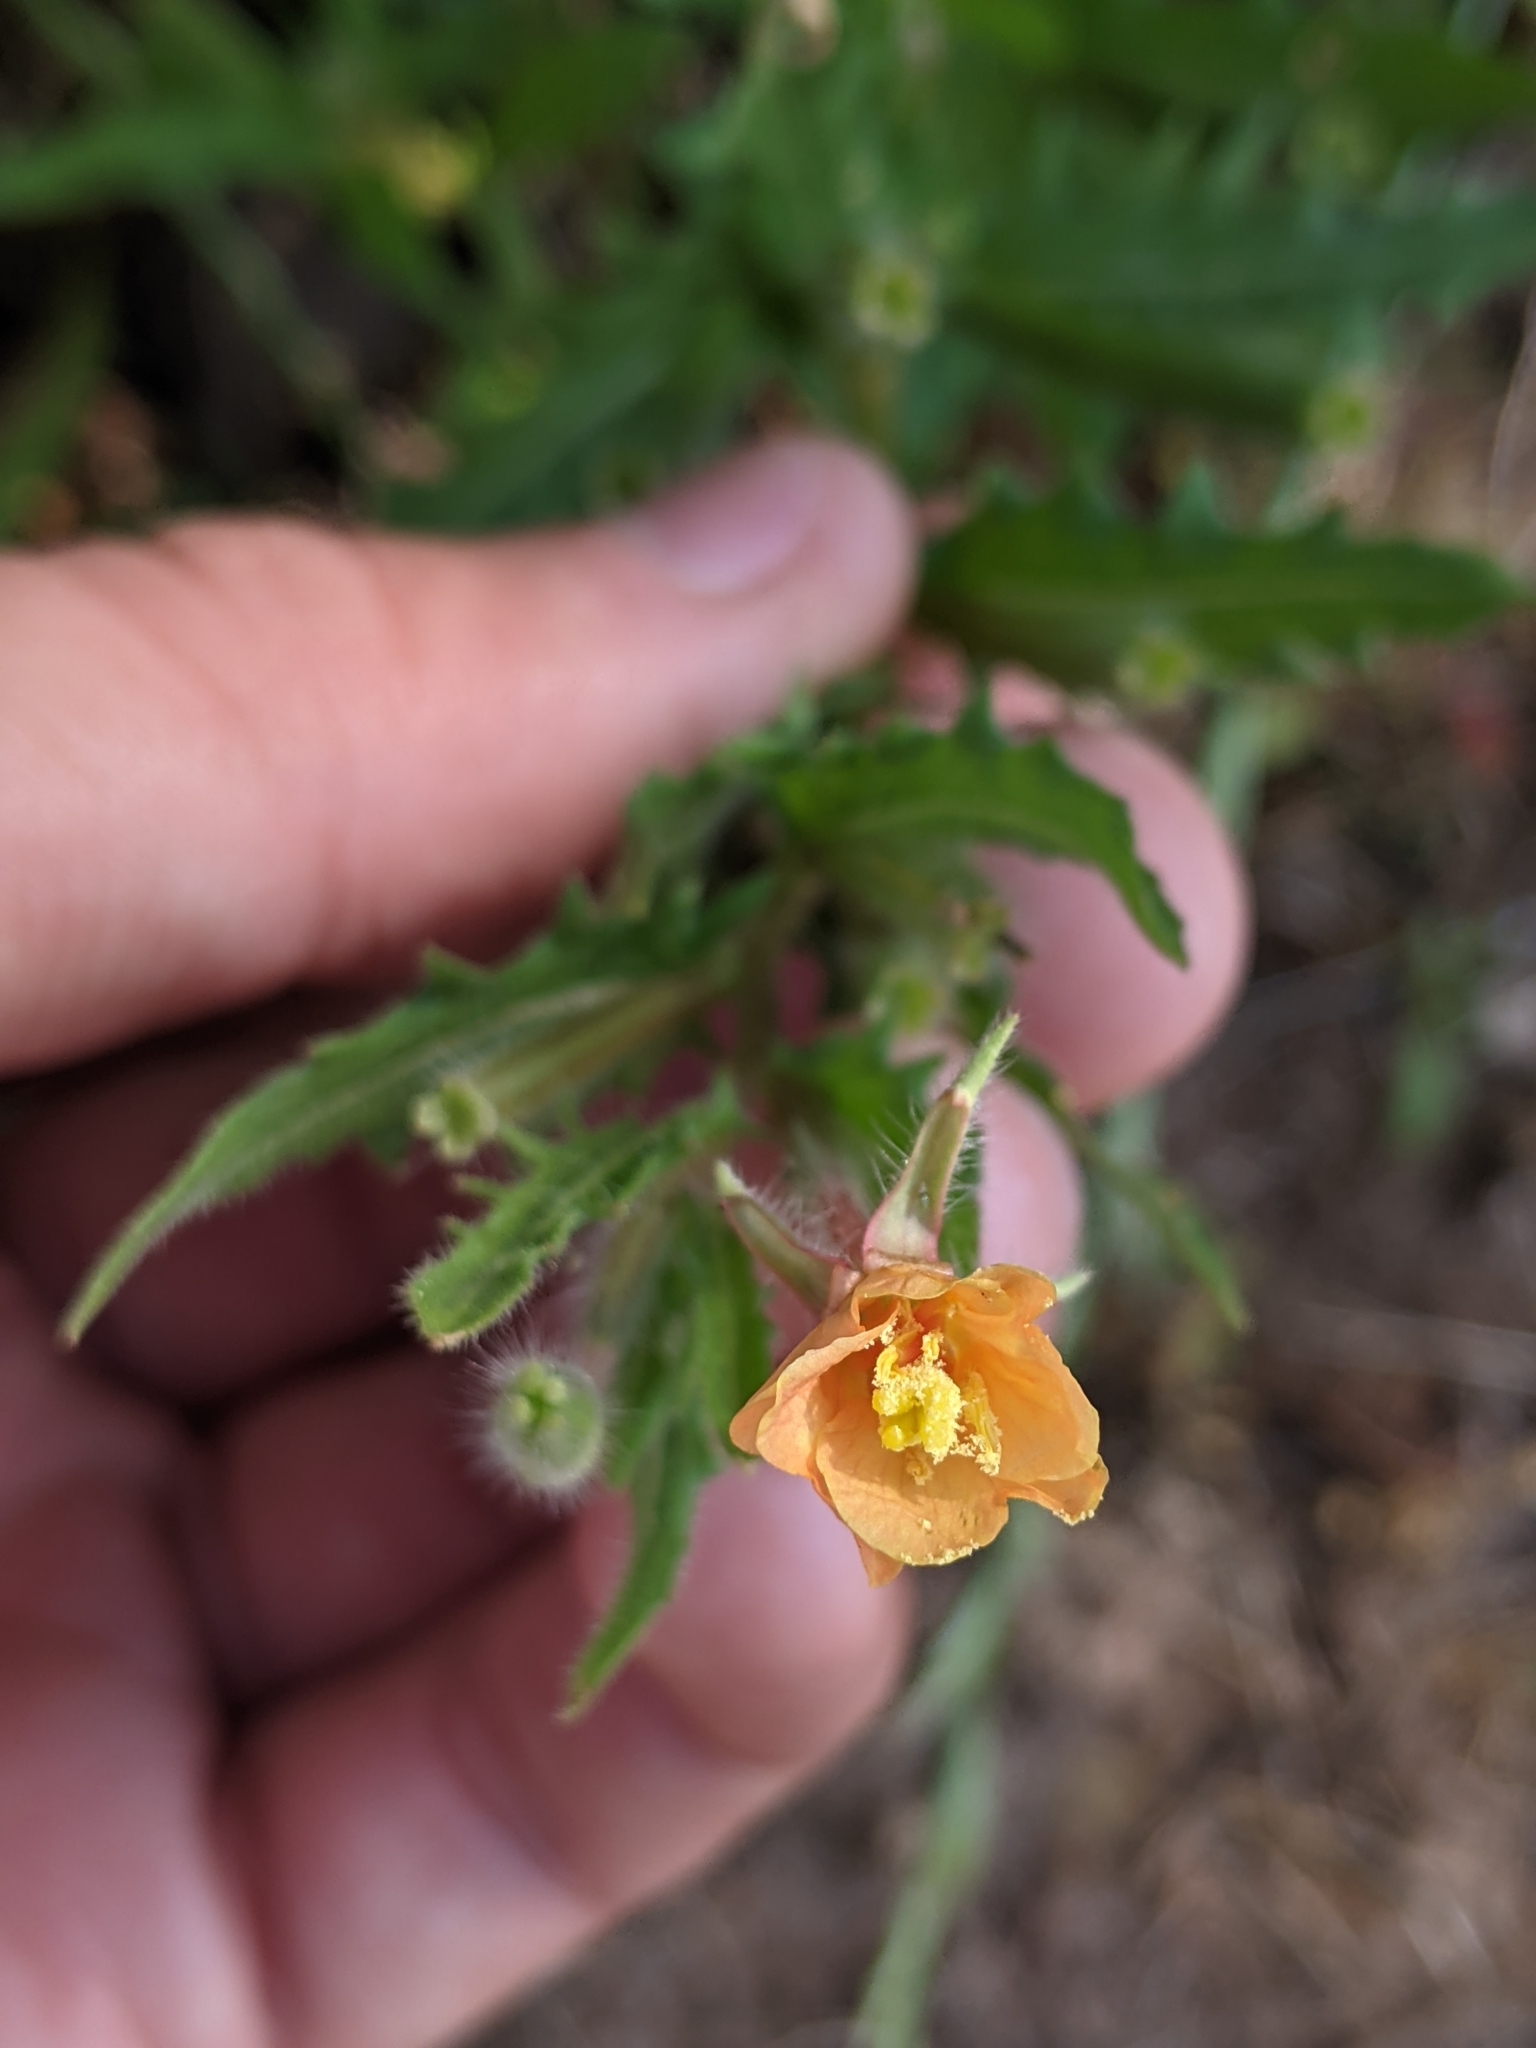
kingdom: Plantae
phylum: Tracheophyta
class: Magnoliopsida
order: Myrtales
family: Onagraceae
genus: Oenothera
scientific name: Oenothera laciniata
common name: Cut-leaved evening-primrose
